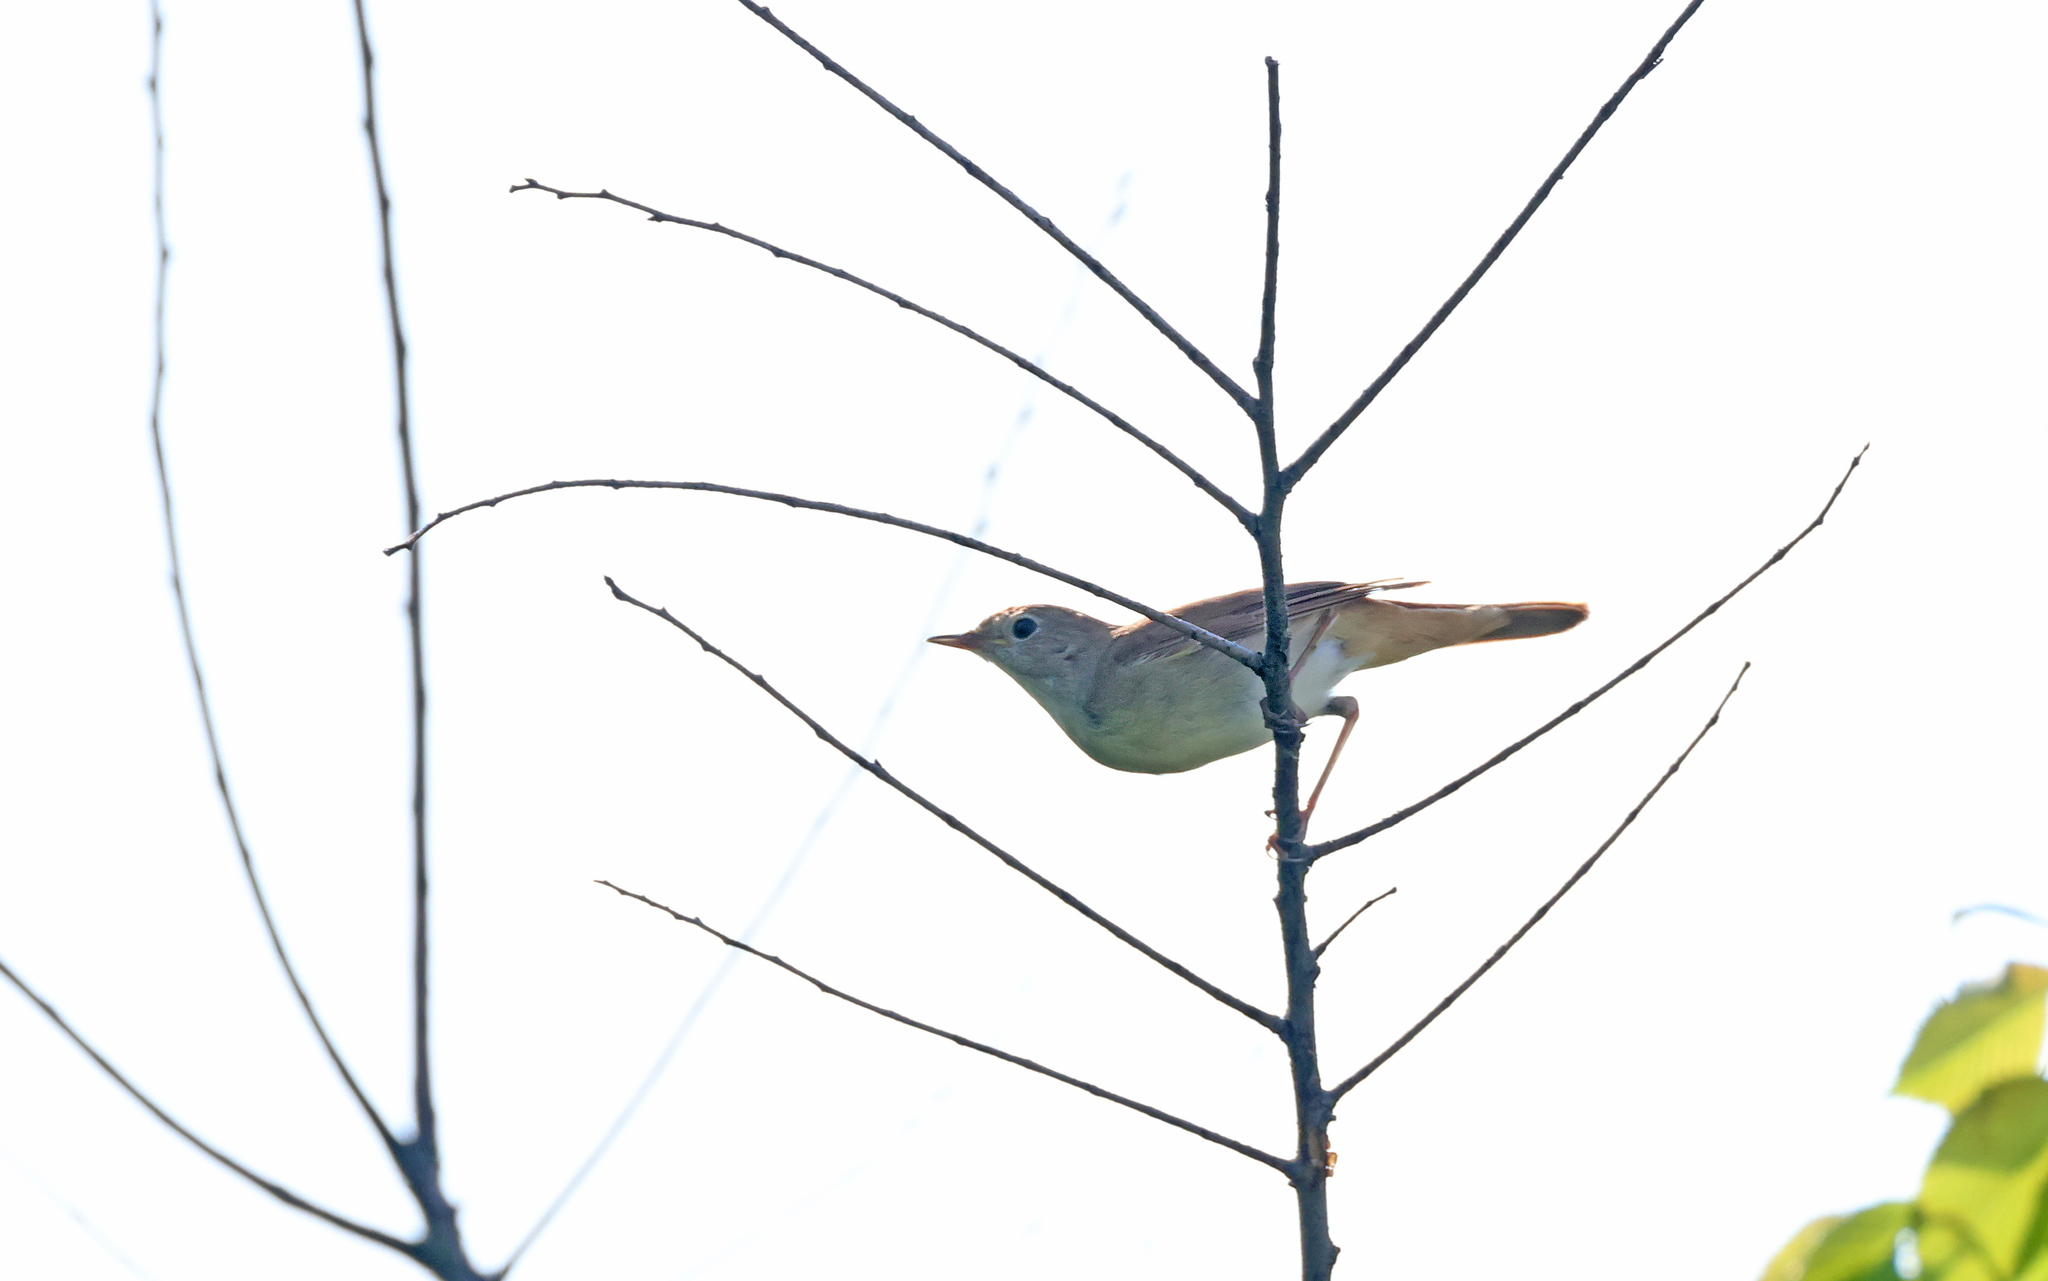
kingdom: Animalia
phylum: Chordata
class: Aves
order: Passeriformes
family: Muscicapidae
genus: Luscinia
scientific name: Luscinia megarhynchos
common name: Common nightingale
